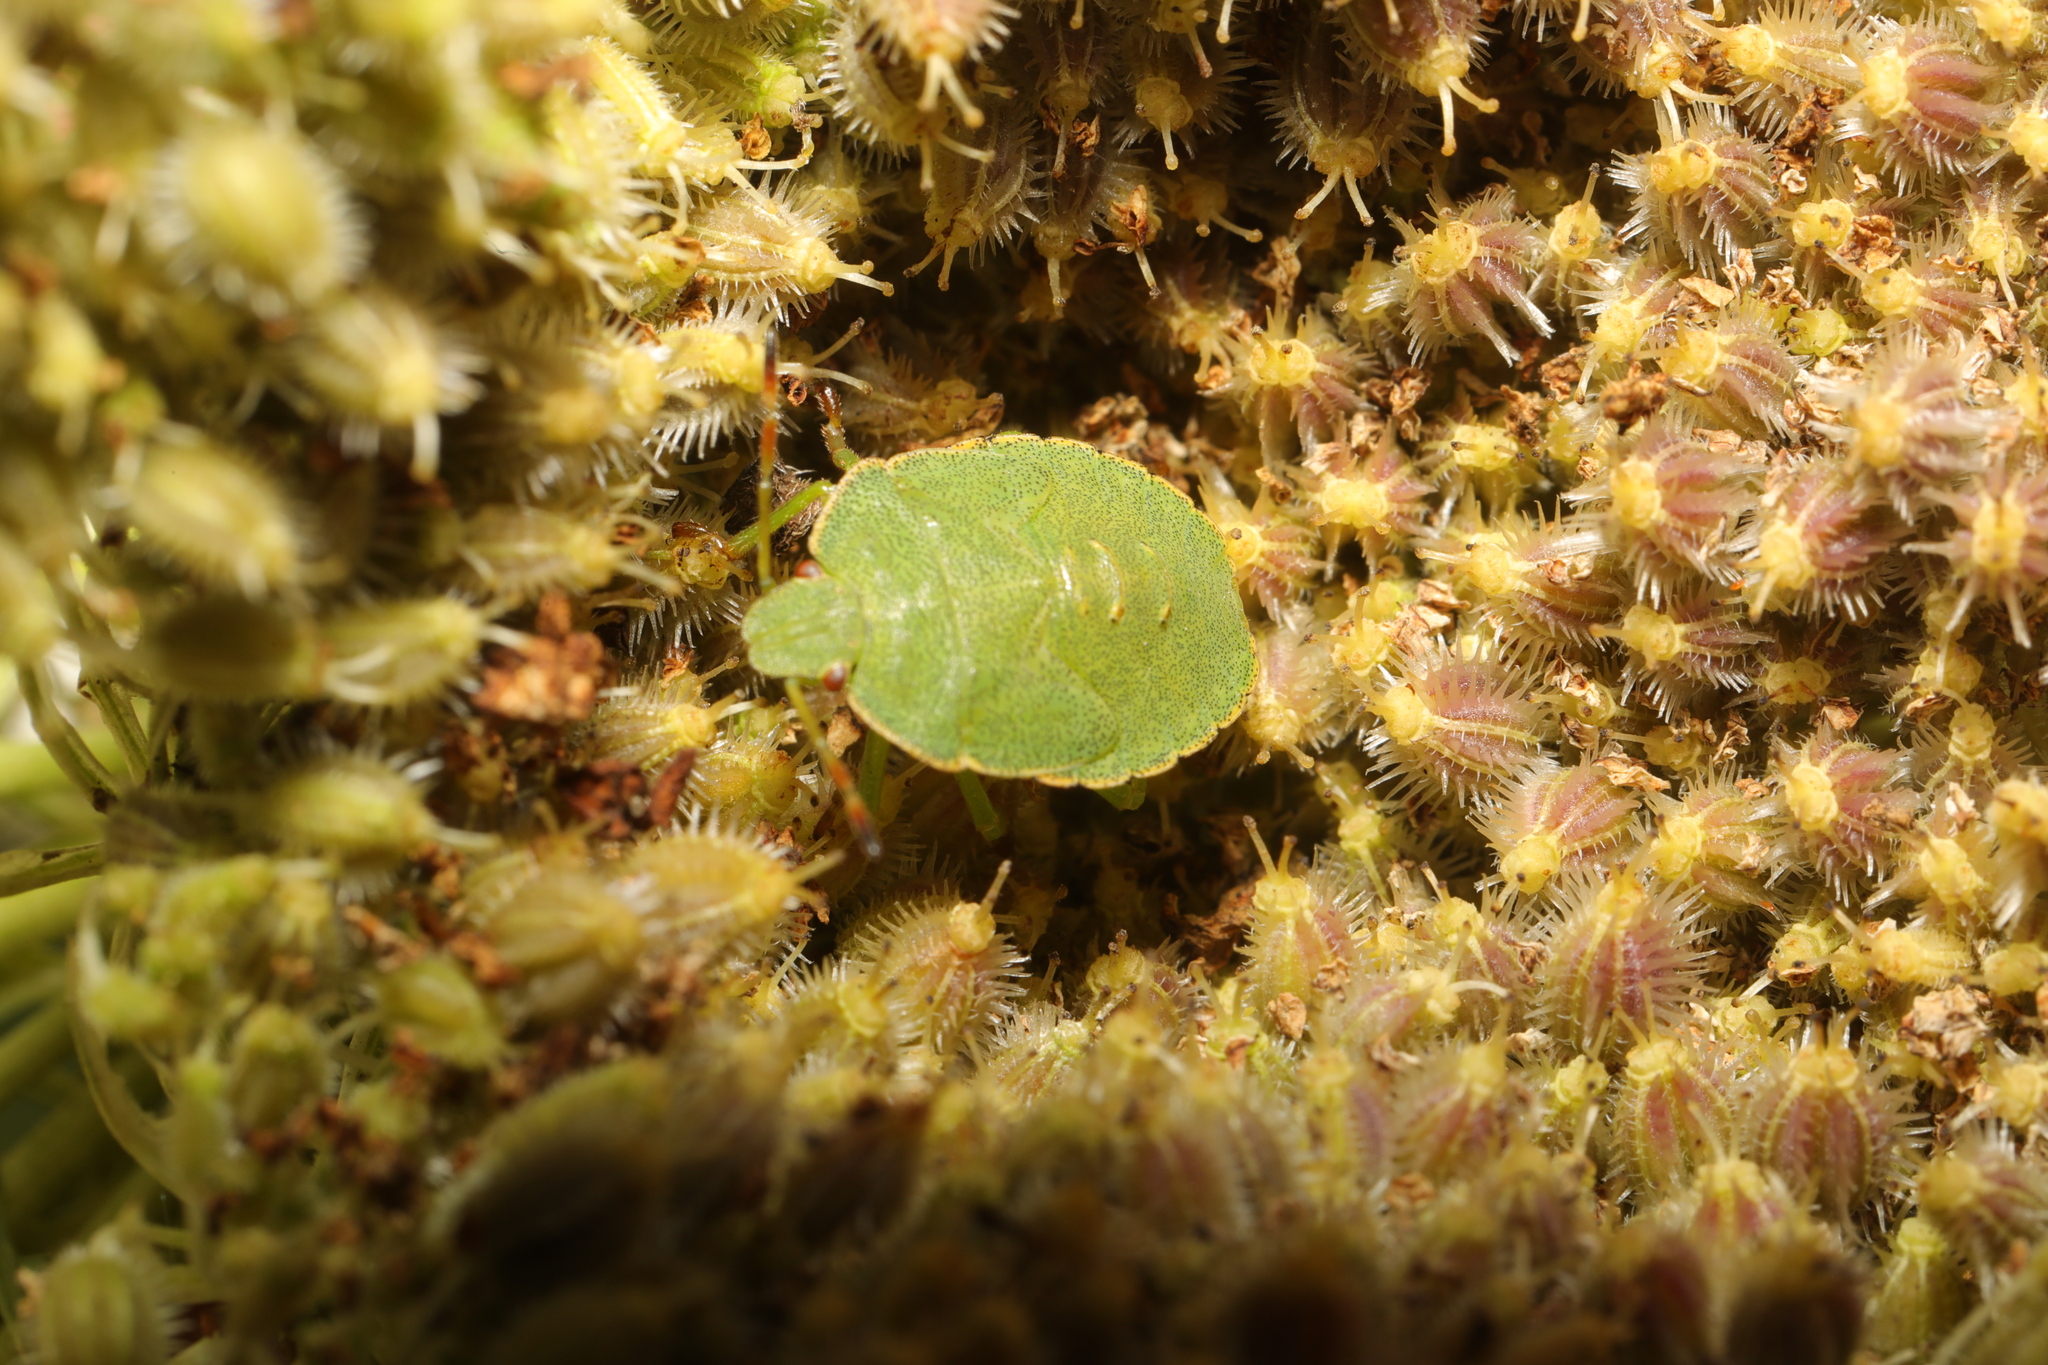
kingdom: Animalia
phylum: Arthropoda
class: Insecta
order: Hemiptera
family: Pentatomidae
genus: Palomena
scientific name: Palomena prasina
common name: Green shieldbug
